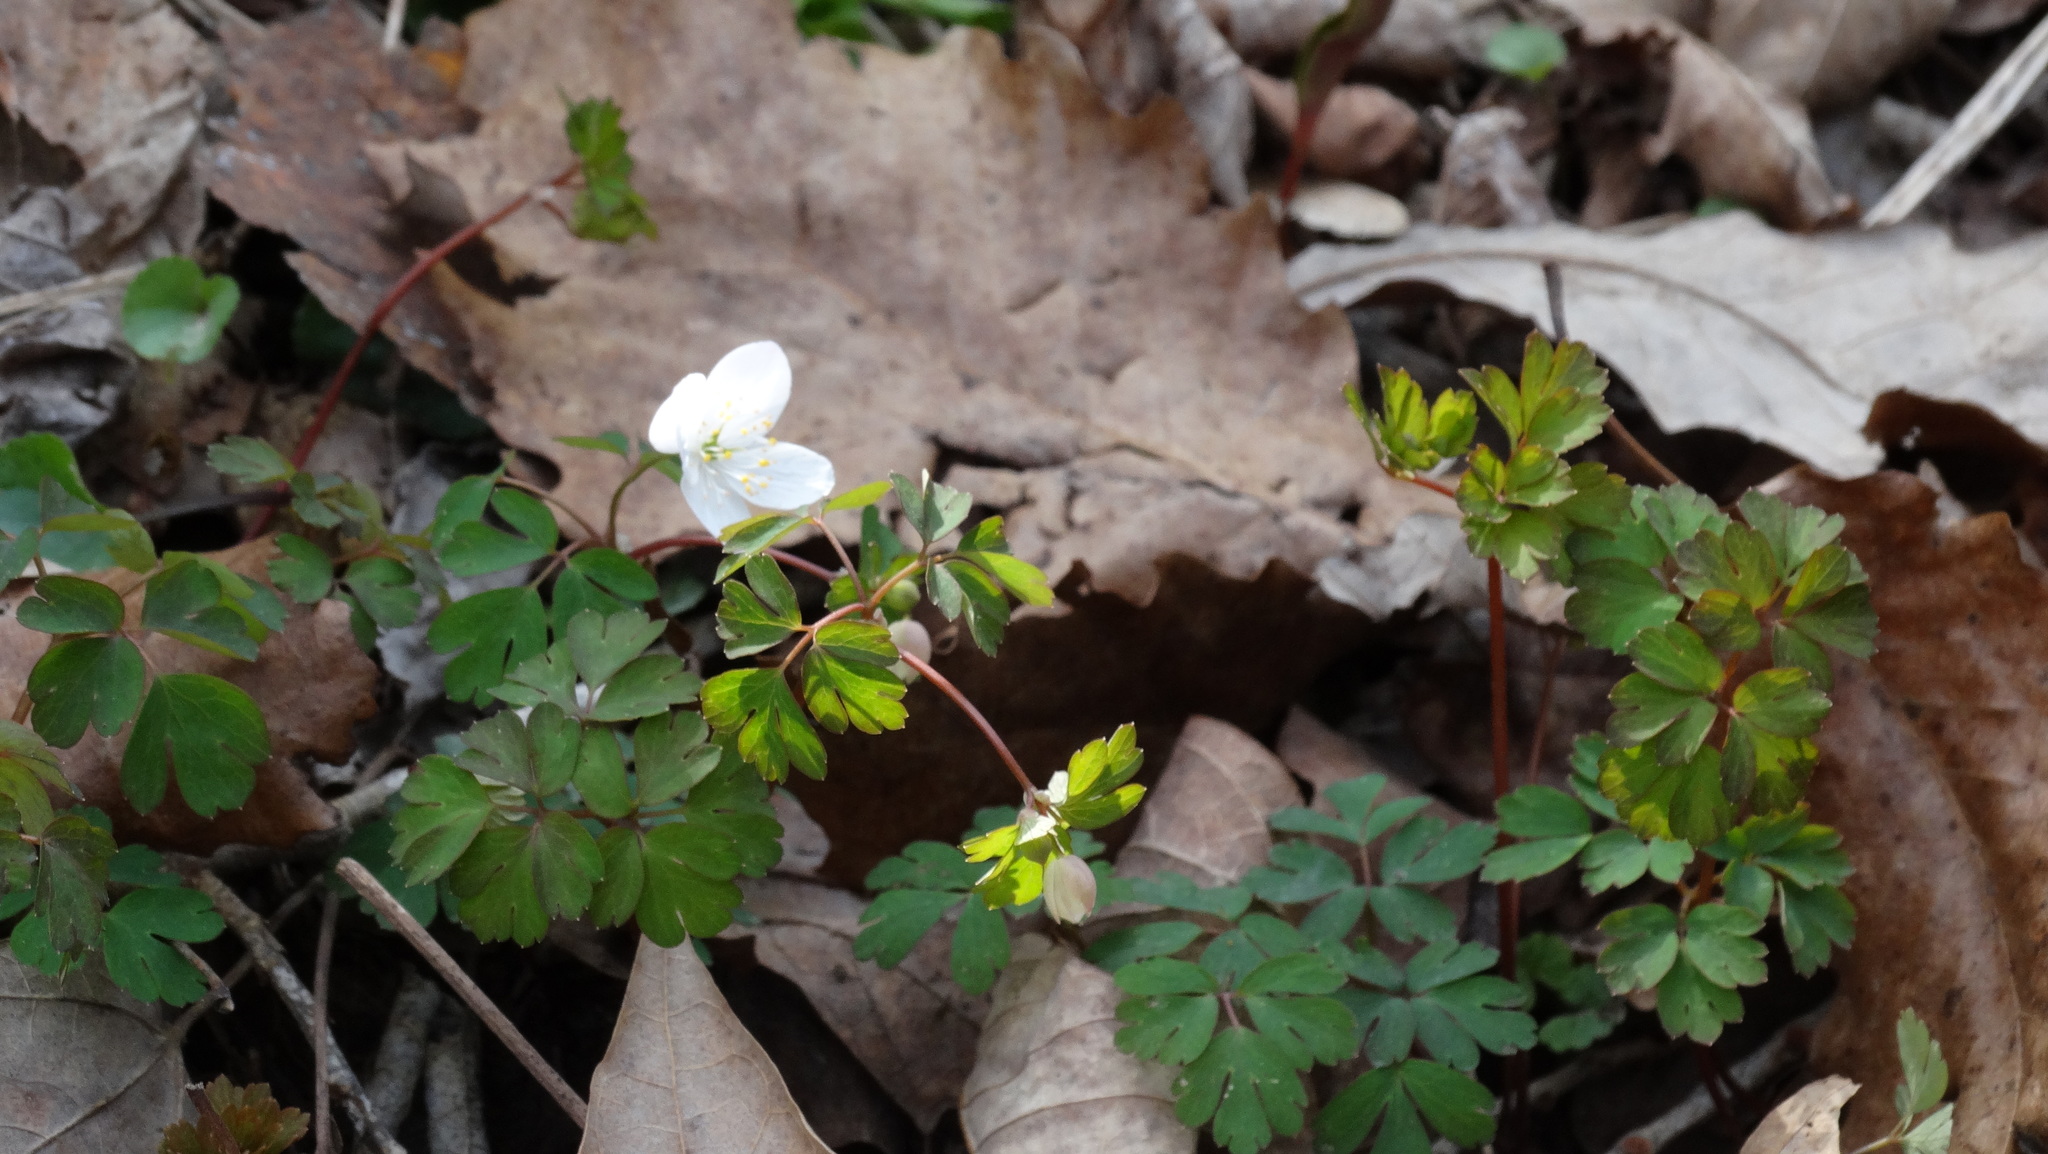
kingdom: Plantae
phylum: Tracheophyta
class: Magnoliopsida
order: Ranunculales
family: Ranunculaceae
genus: Enemion
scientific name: Enemion biternatum
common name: Eastern false rue-anemone
